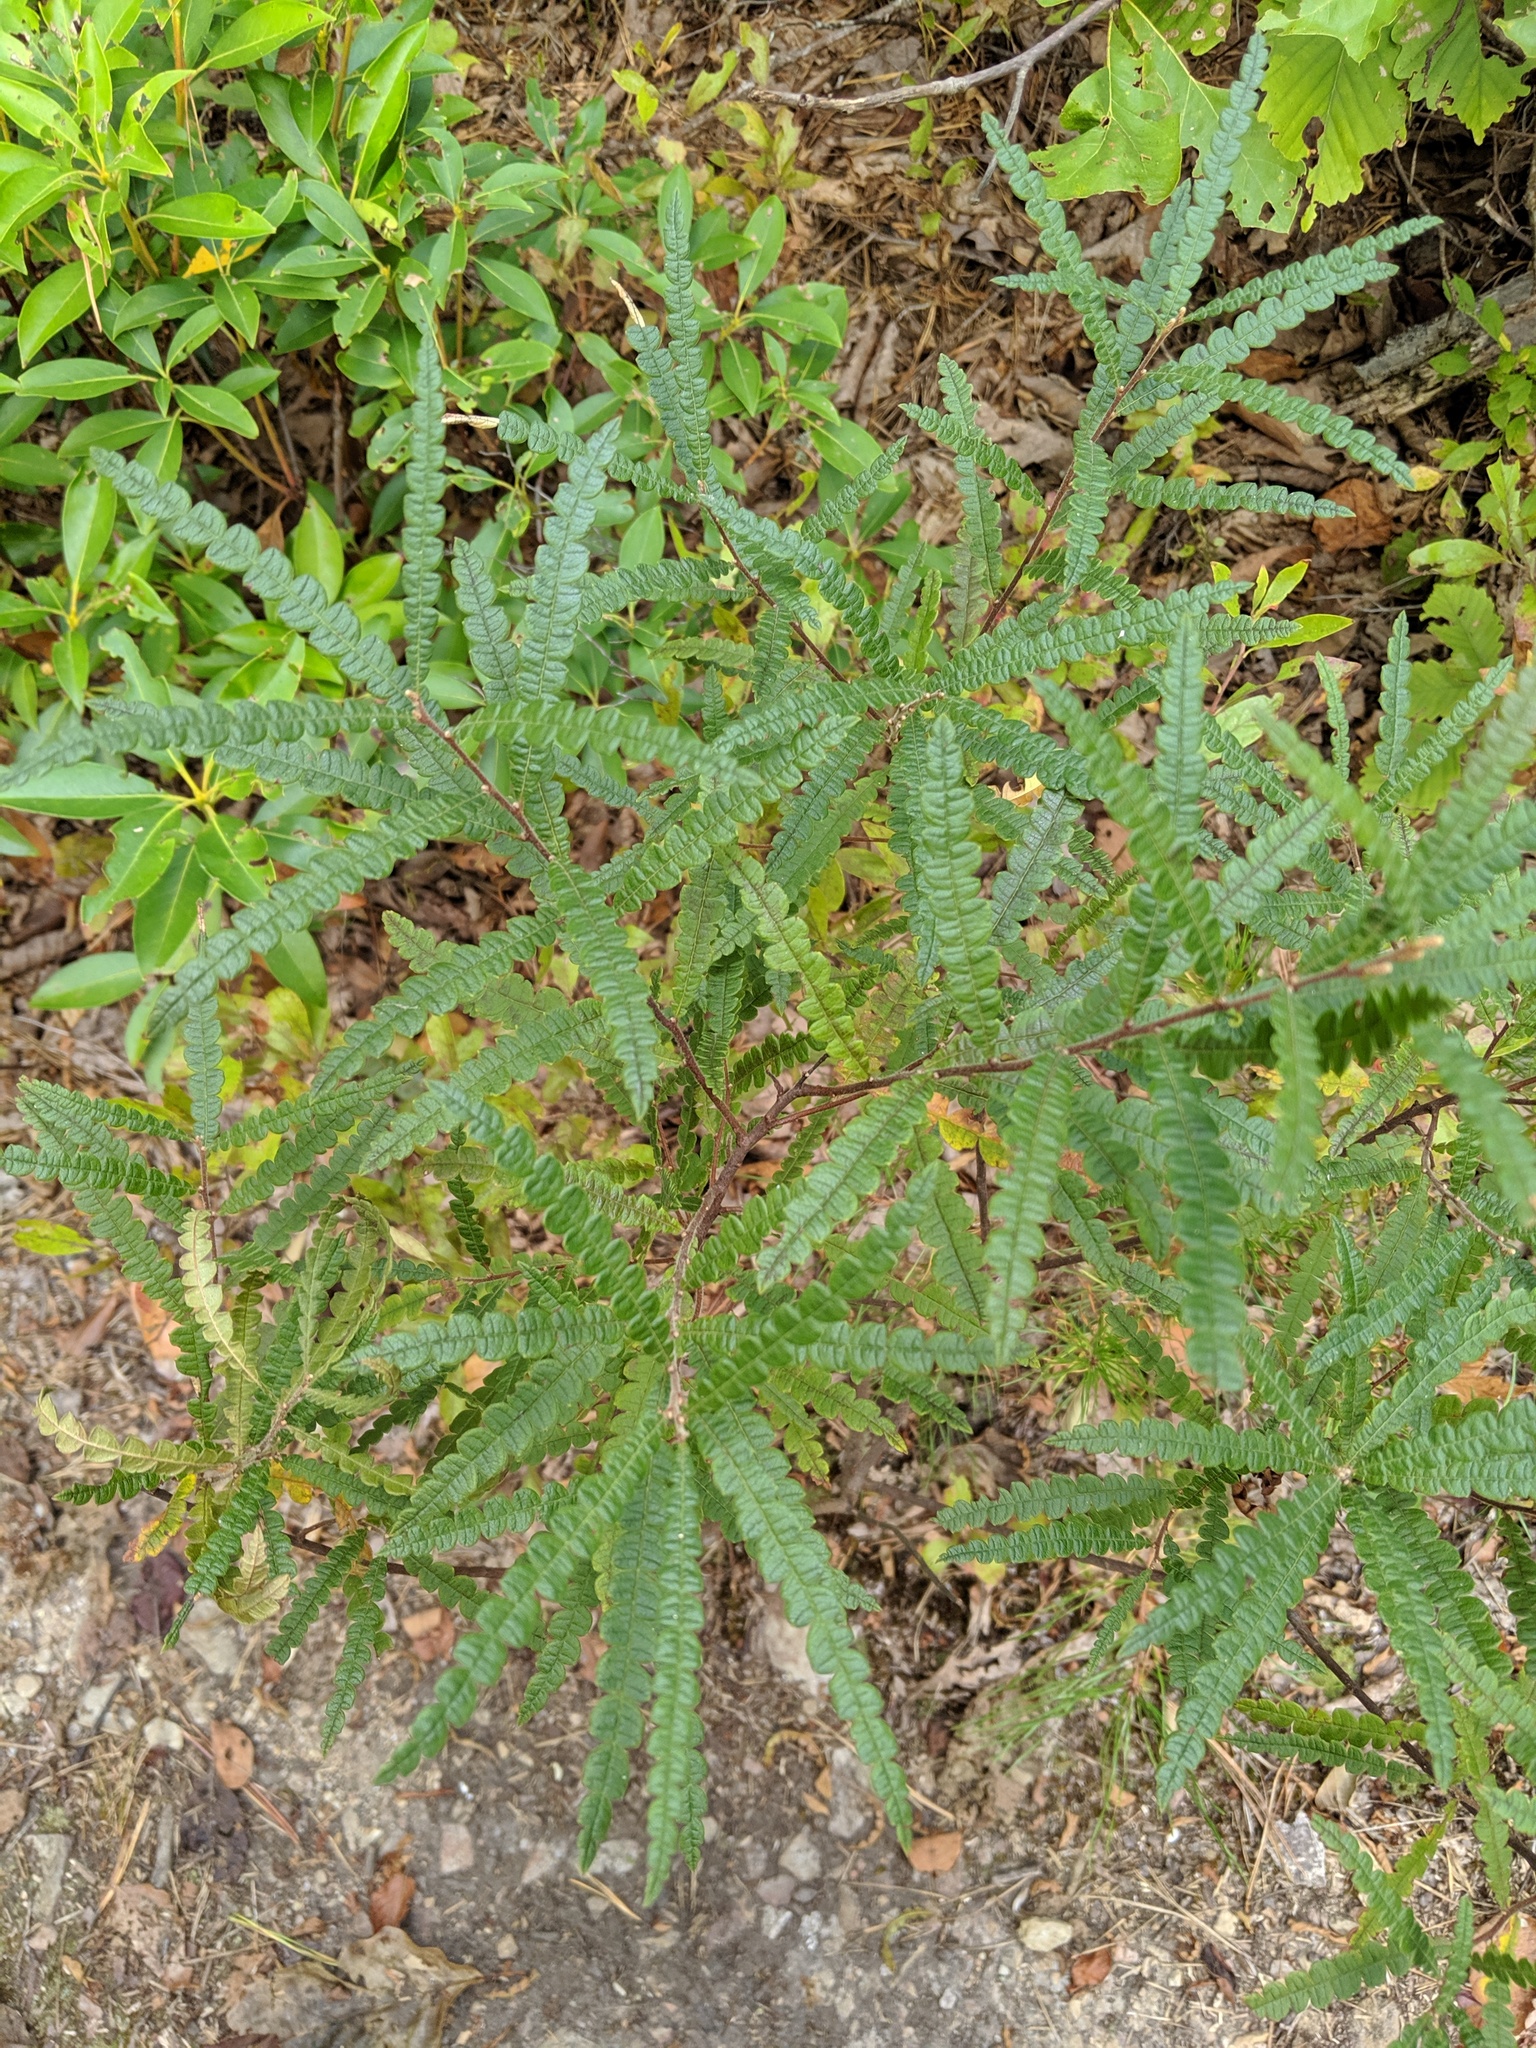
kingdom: Plantae
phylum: Tracheophyta
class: Magnoliopsida
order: Fagales
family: Myricaceae
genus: Comptonia
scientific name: Comptonia peregrina
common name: Sweet-fern
